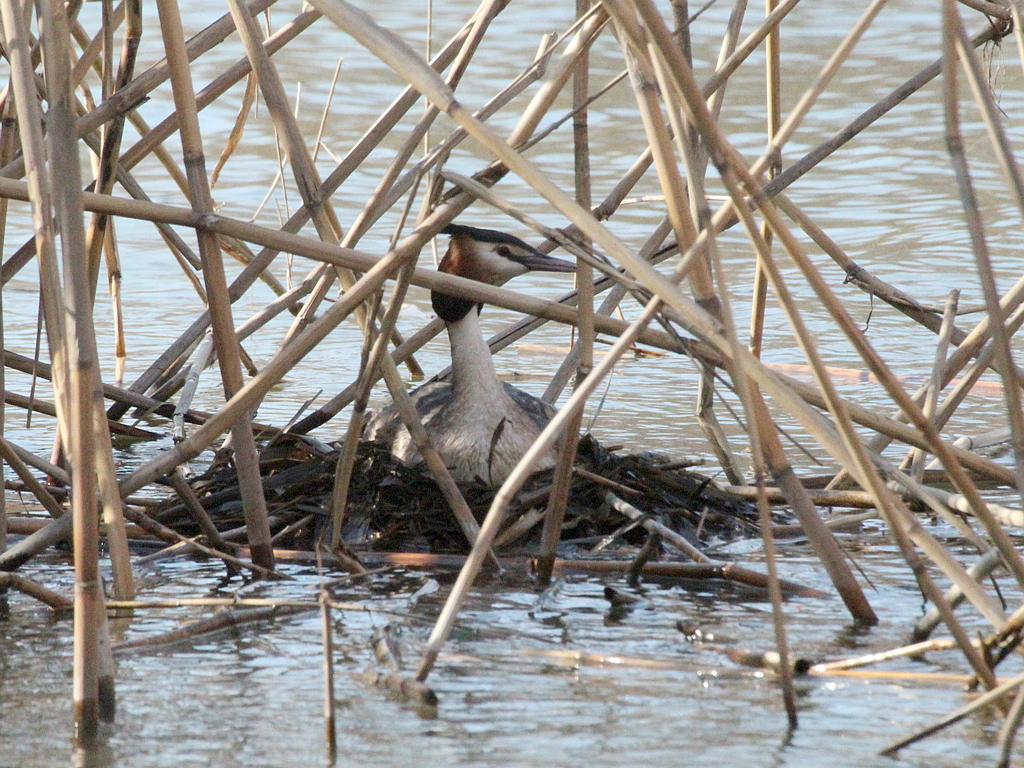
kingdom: Animalia
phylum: Chordata
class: Aves
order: Podicipediformes
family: Podicipedidae
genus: Podiceps
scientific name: Podiceps cristatus
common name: Great crested grebe
